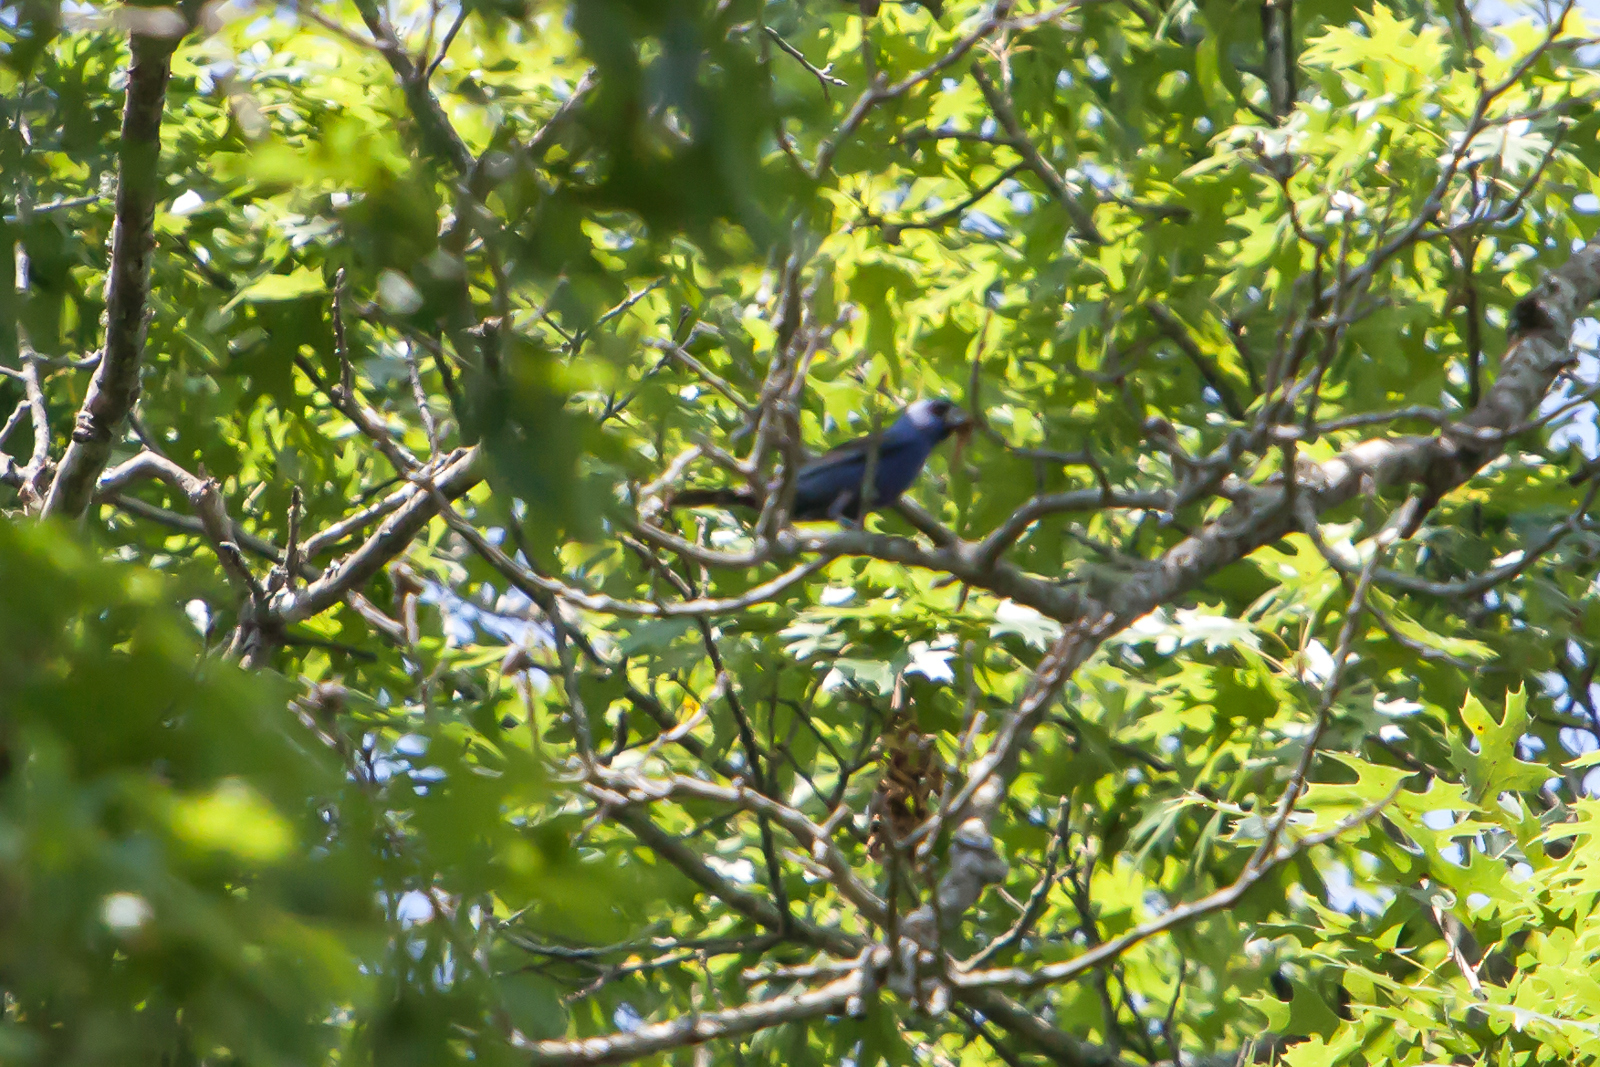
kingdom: Animalia
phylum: Chordata
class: Aves
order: Passeriformes
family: Cardinalidae
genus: Passerina
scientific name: Passerina caerulea
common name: Blue grosbeak
